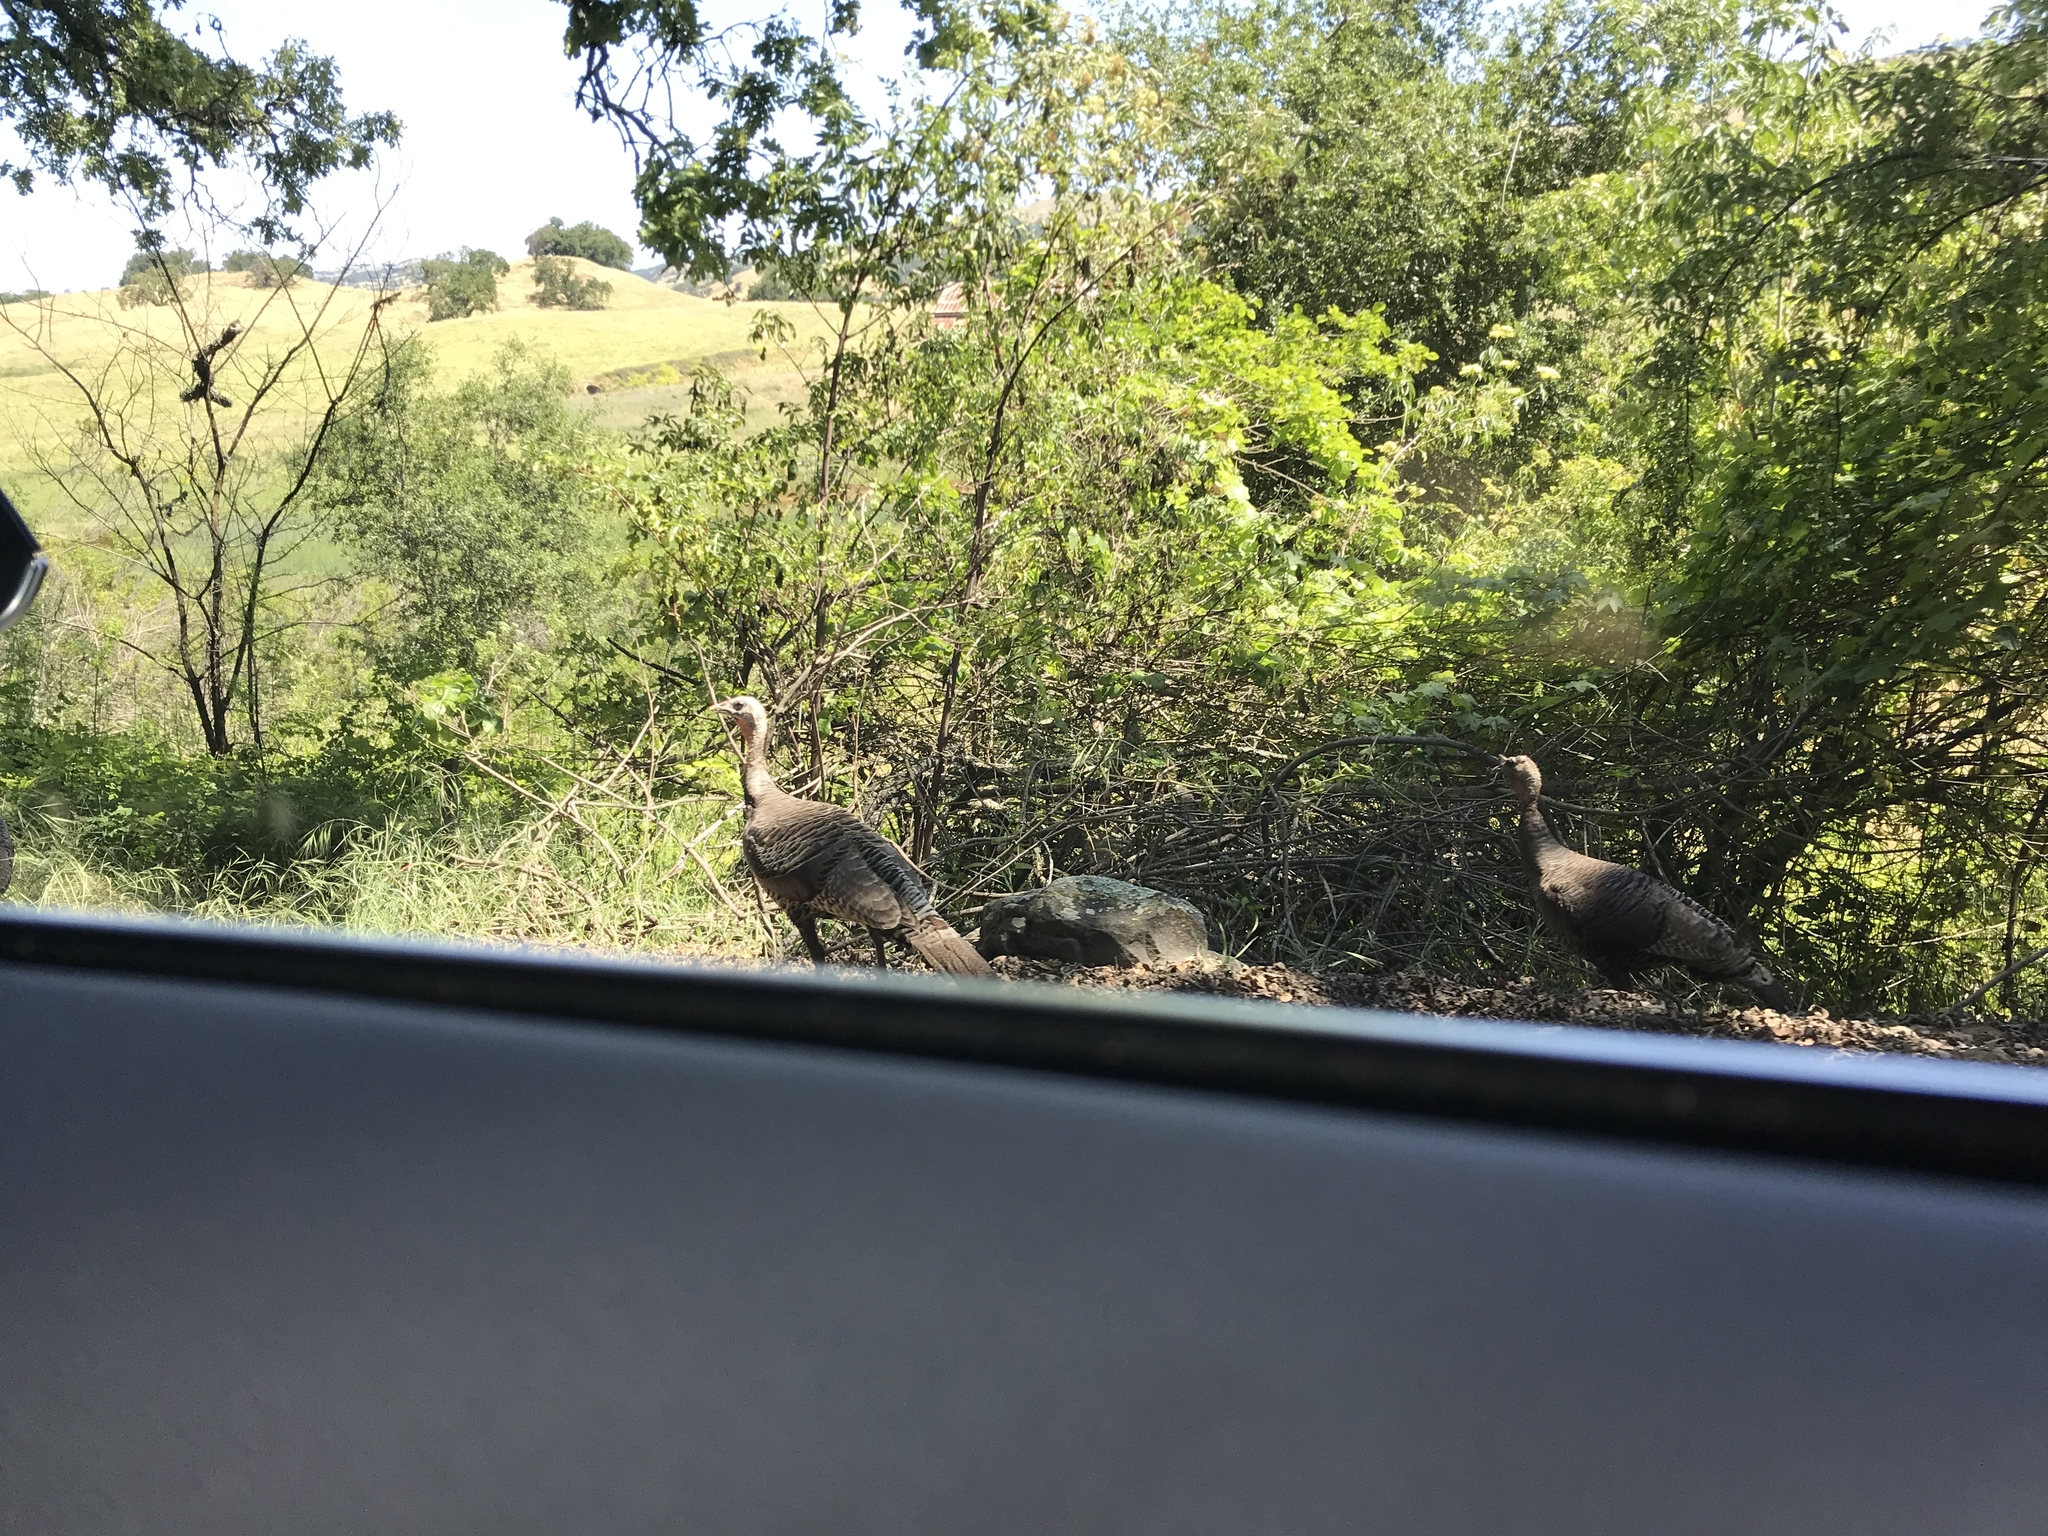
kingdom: Animalia
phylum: Chordata
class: Aves
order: Galliformes
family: Phasianidae
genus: Meleagris
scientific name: Meleagris gallopavo
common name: Wild turkey
